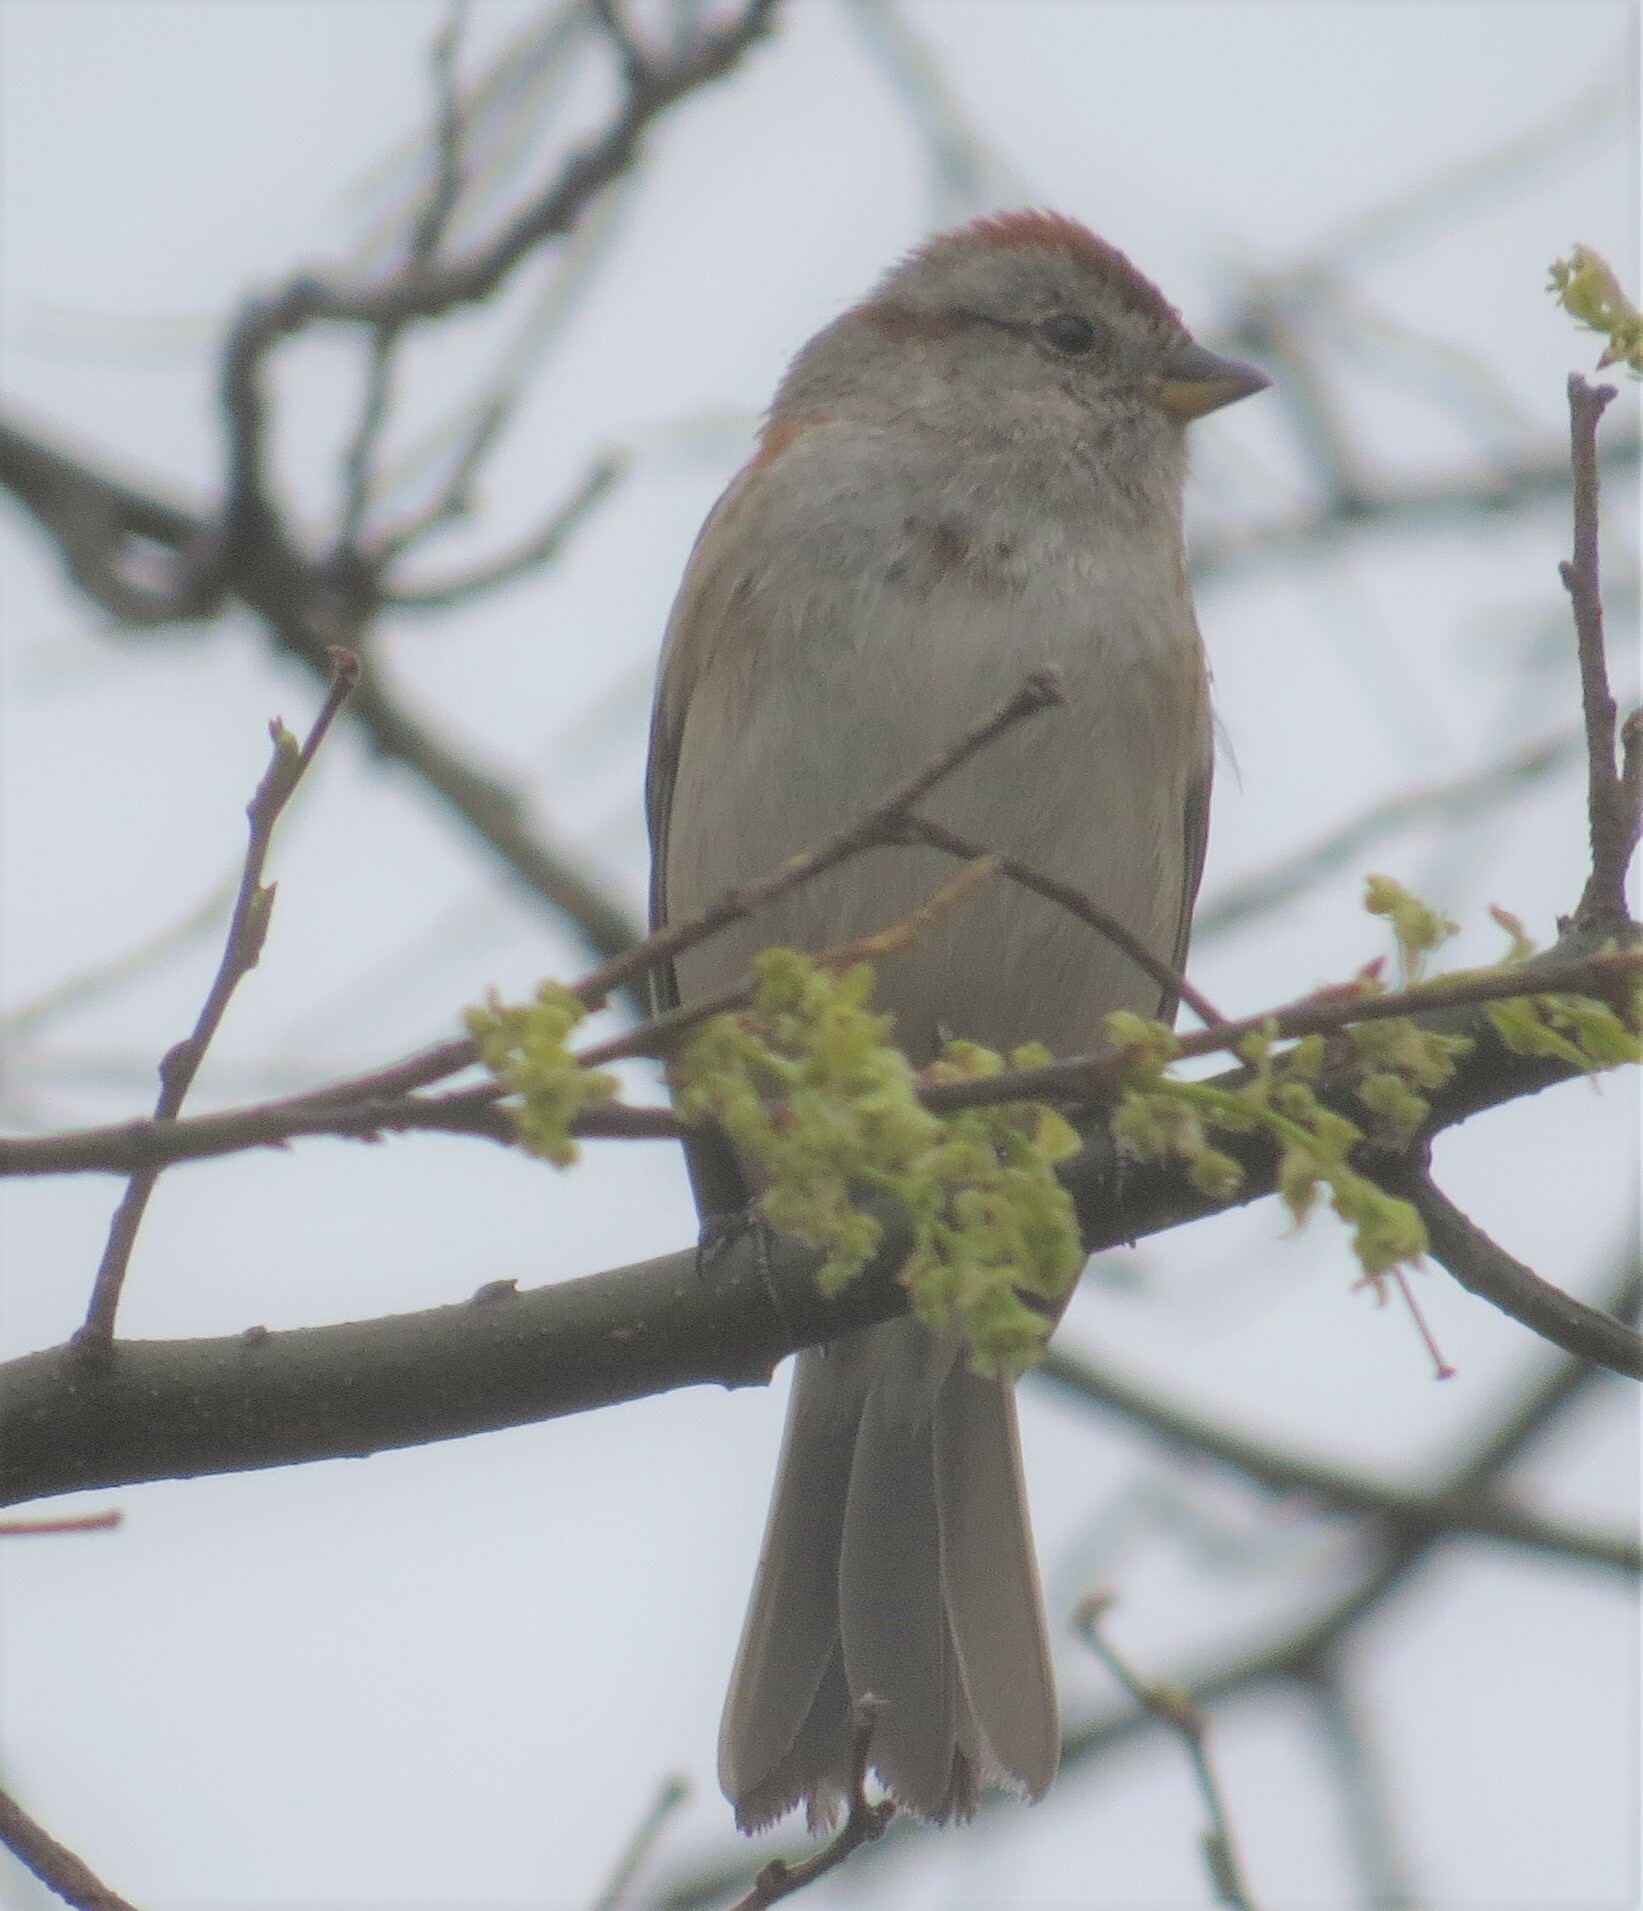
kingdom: Animalia
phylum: Chordata
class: Aves
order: Passeriformes
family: Passerellidae
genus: Spizelloides
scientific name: Spizelloides arborea
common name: American tree sparrow
